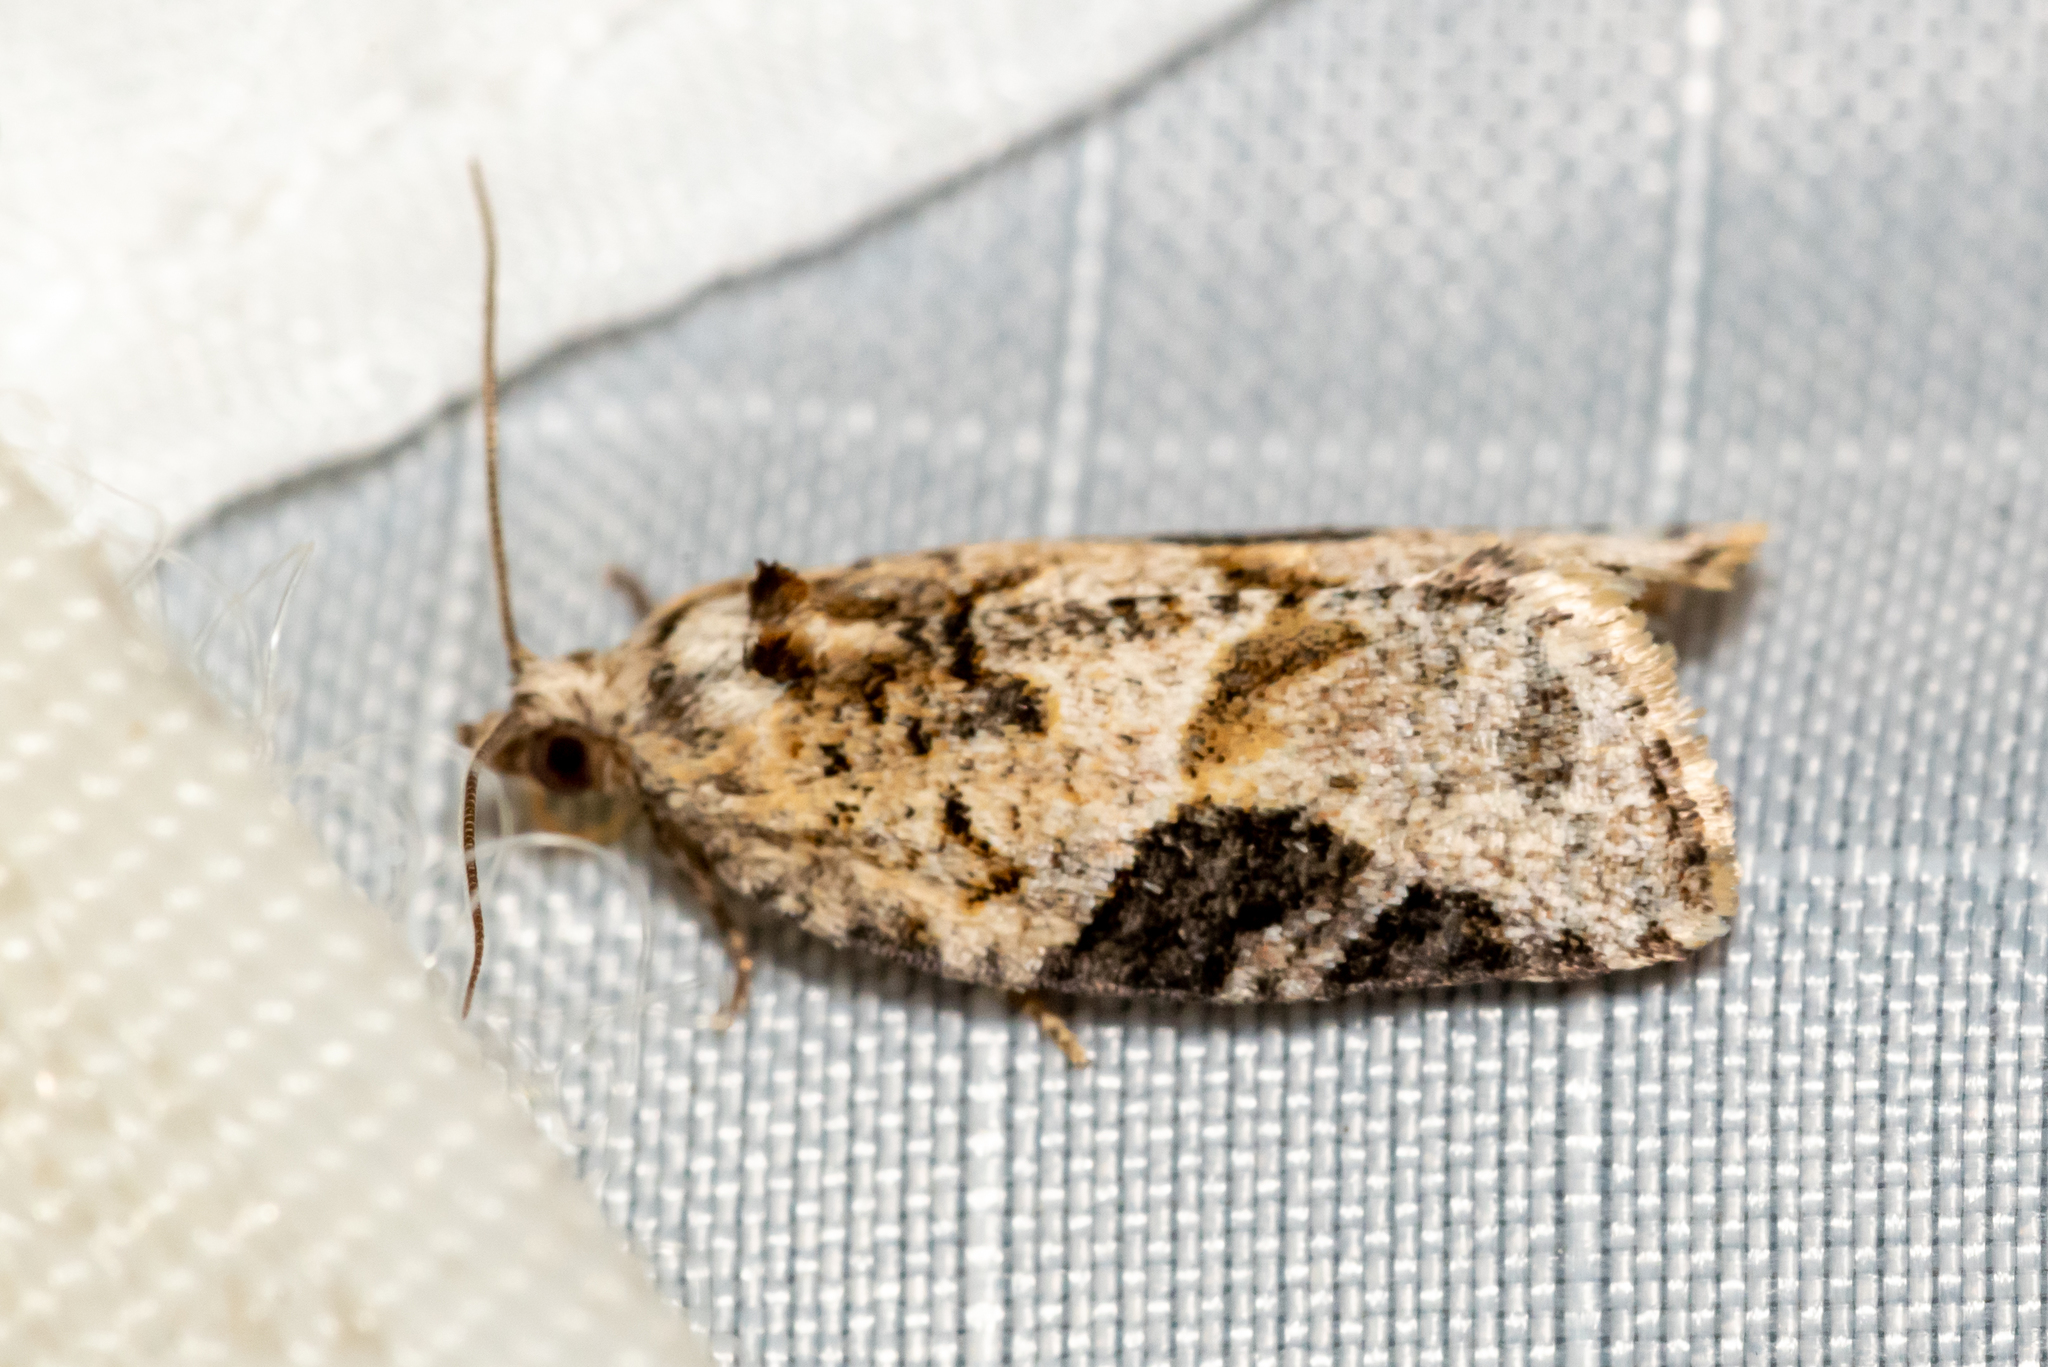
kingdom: Animalia
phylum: Arthropoda
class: Insecta
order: Lepidoptera
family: Tortricidae
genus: Argyrotaenia
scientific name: Argyrotaenia mariana
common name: Gray-banded leafroller moth
